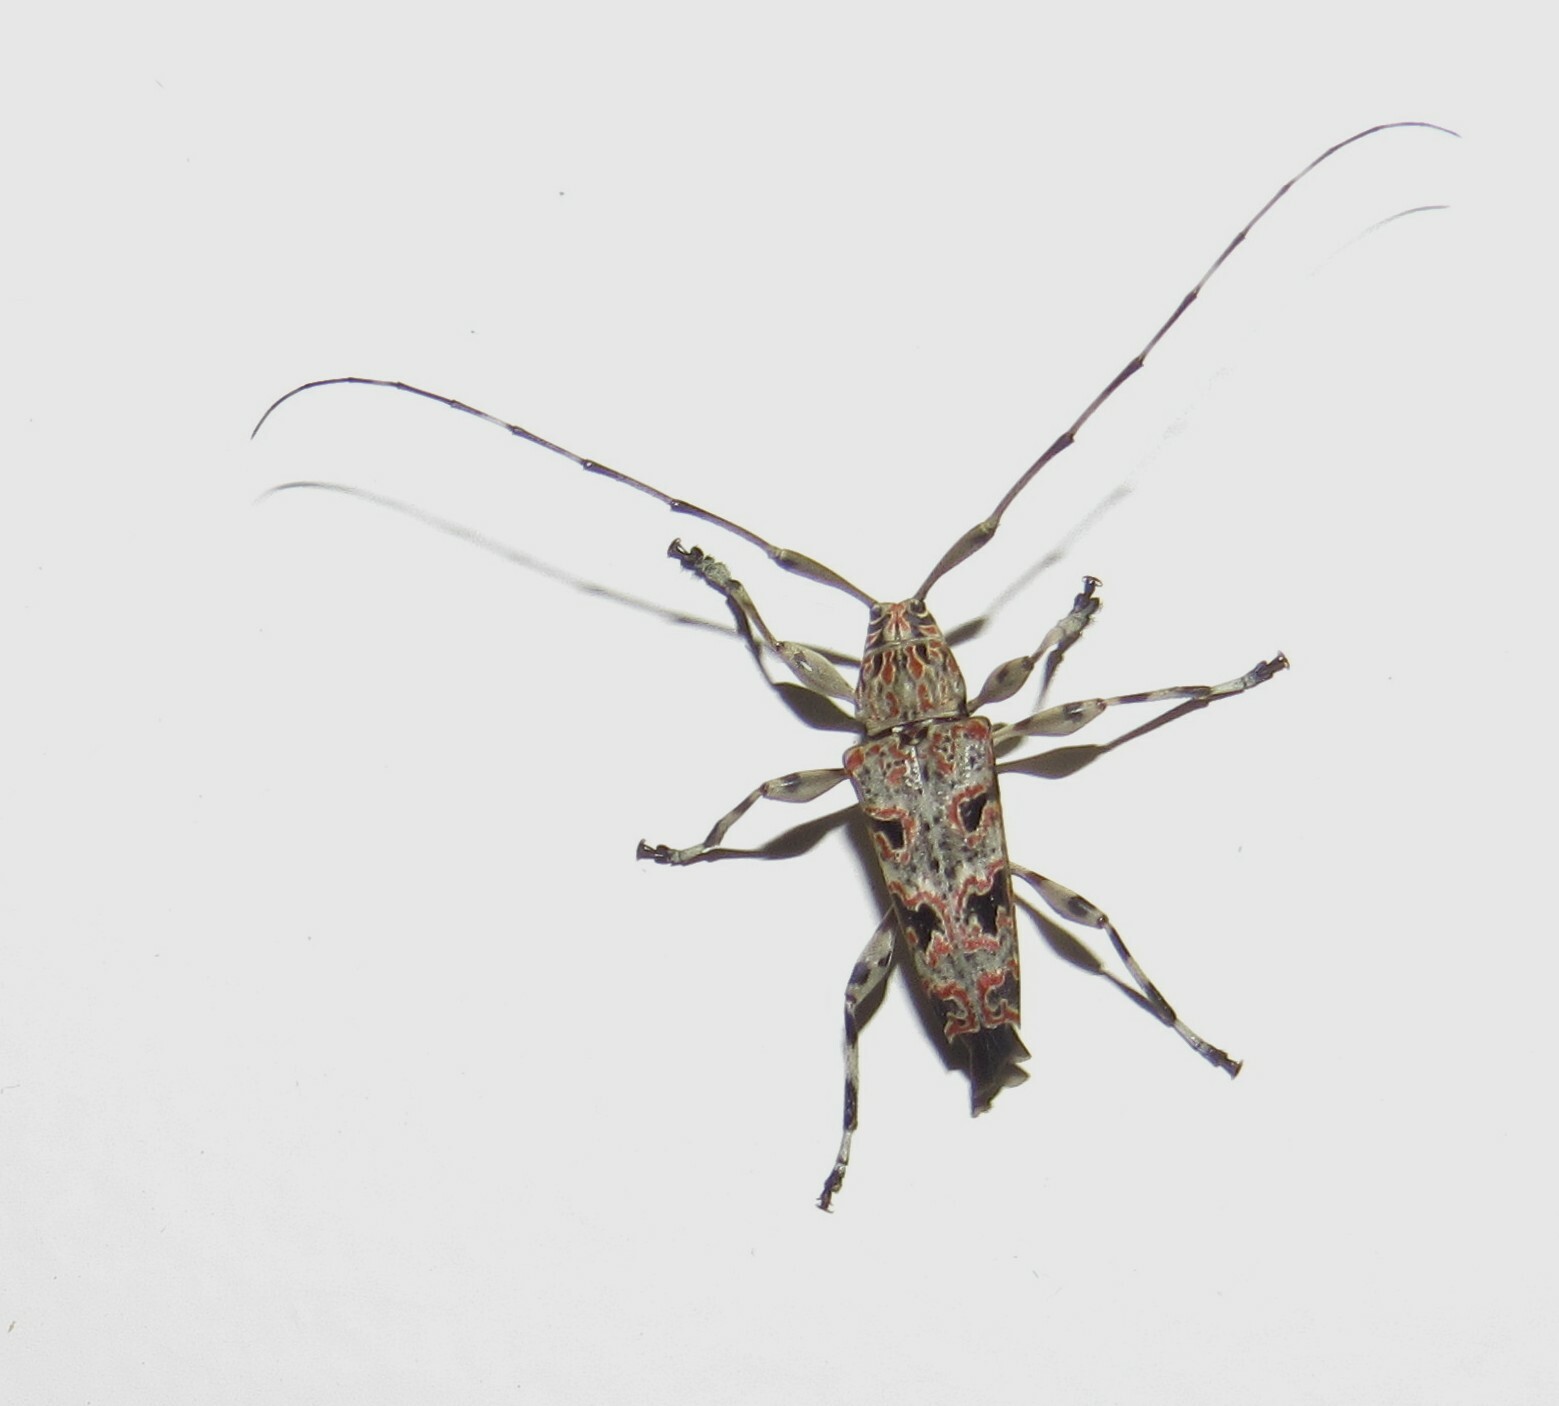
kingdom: Animalia
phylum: Arthropoda
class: Insecta
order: Coleoptera
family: Cerambycidae
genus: Colobothea
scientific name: Colobothea simillima
